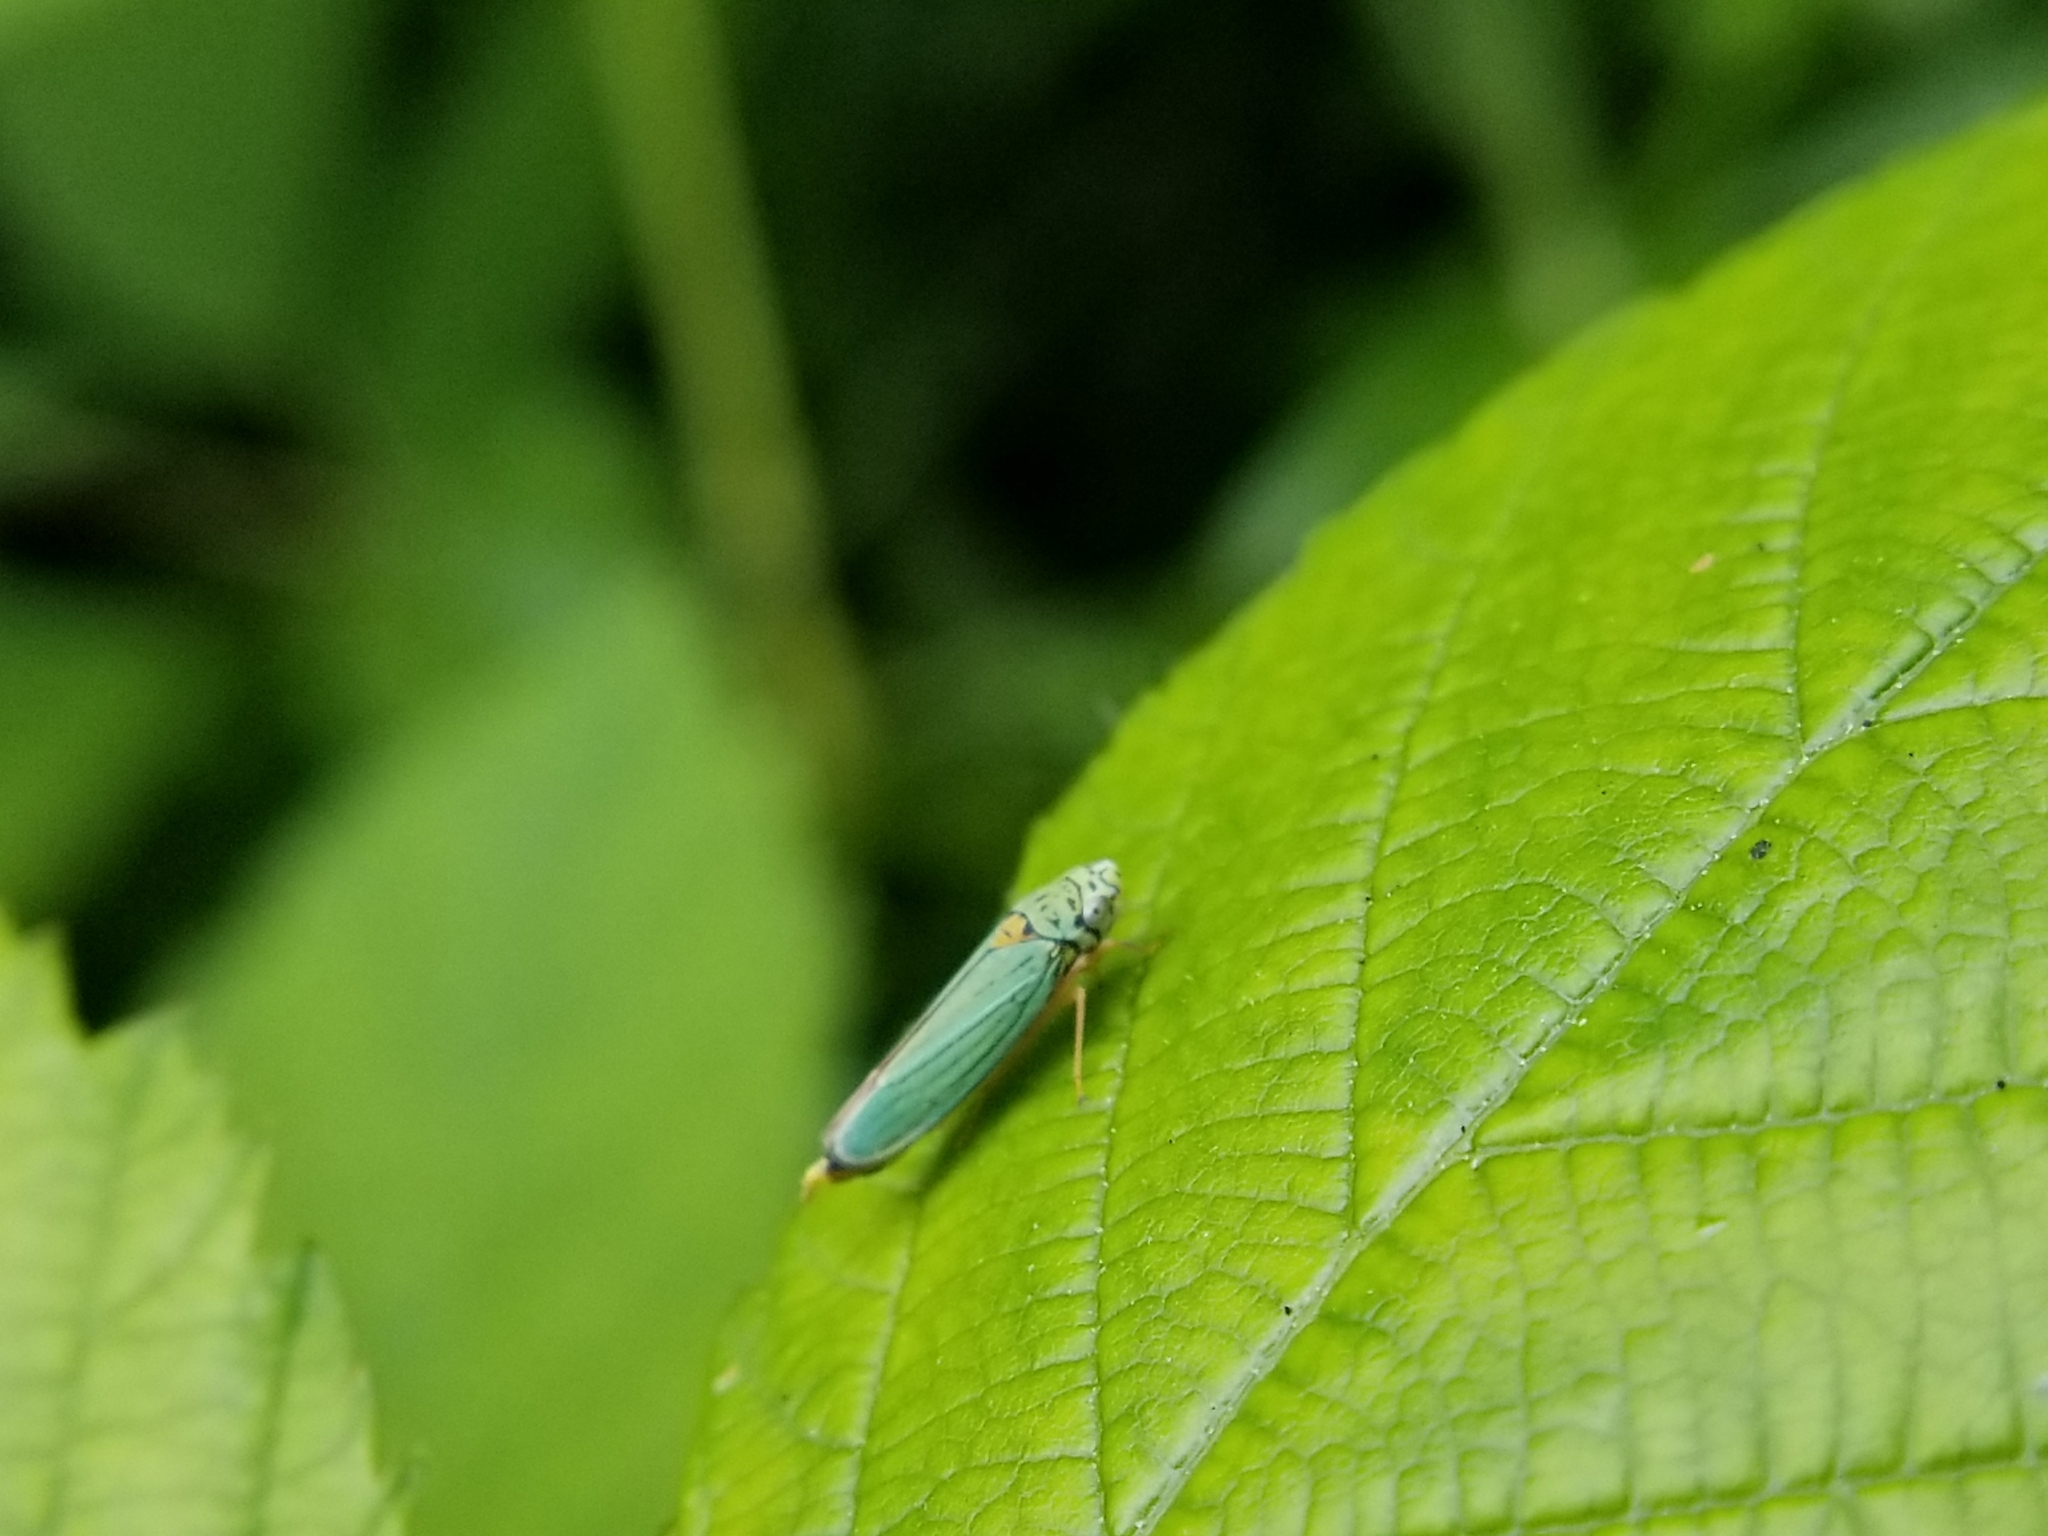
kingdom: Animalia
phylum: Arthropoda
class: Insecta
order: Hemiptera
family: Cicadellidae
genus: Graphocephala
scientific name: Graphocephala atropunctata
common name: Blue-green sharpshooter
